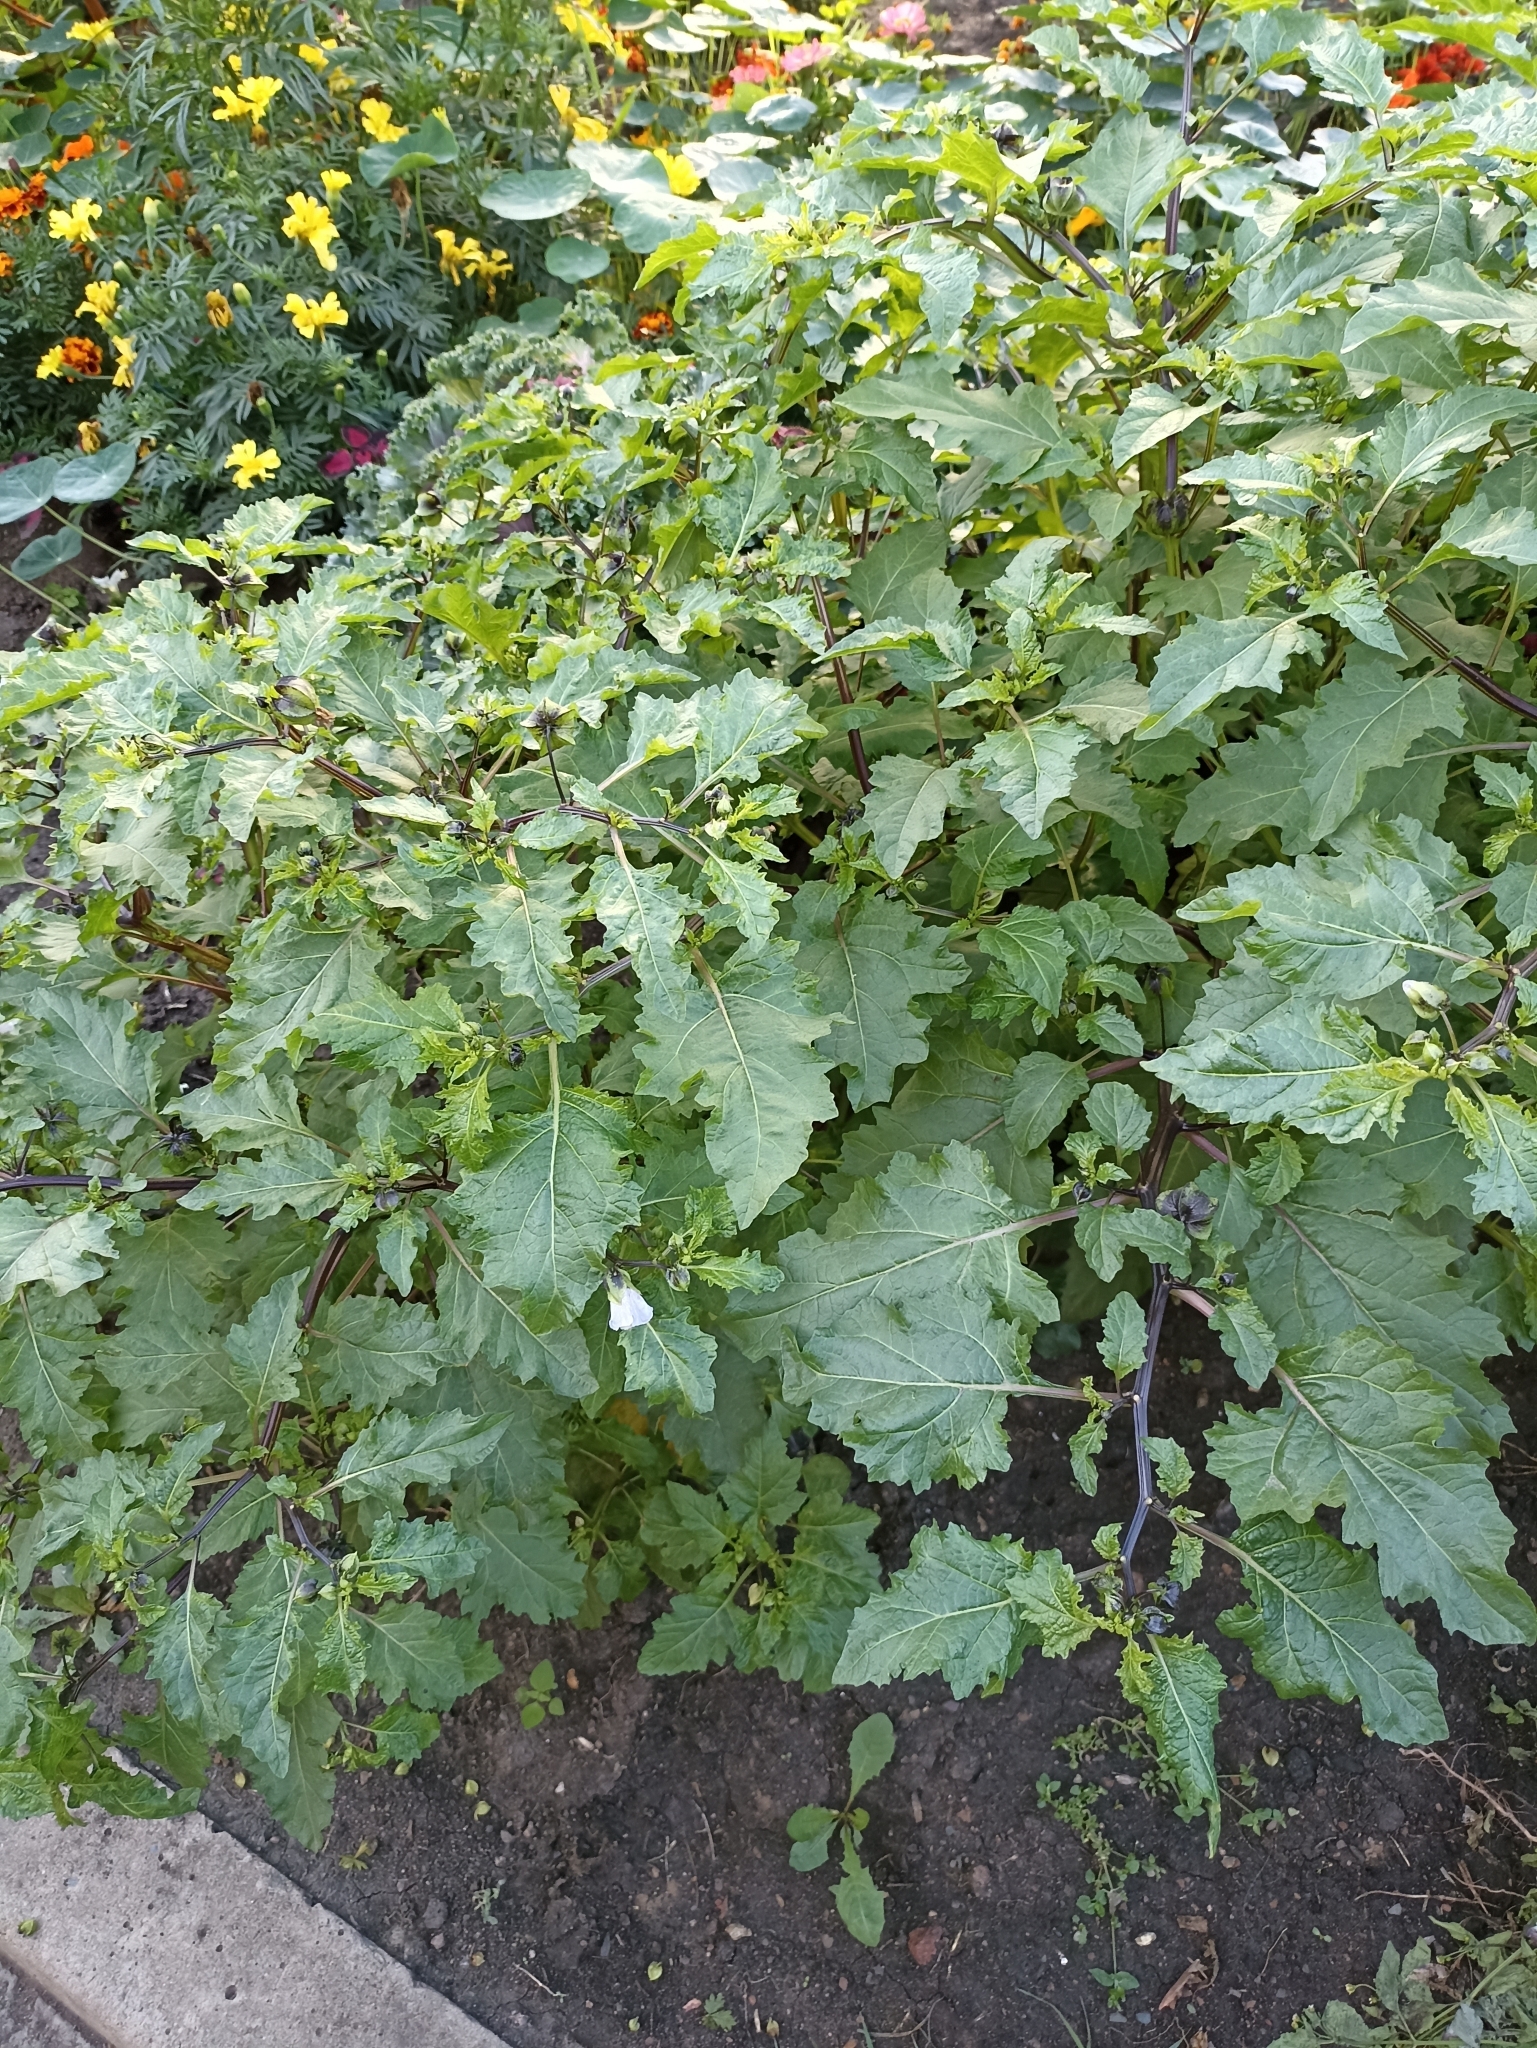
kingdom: Plantae
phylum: Tracheophyta
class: Magnoliopsida
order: Solanales
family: Solanaceae
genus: Nicandra
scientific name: Nicandra physalodes
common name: Apple-of-peru
